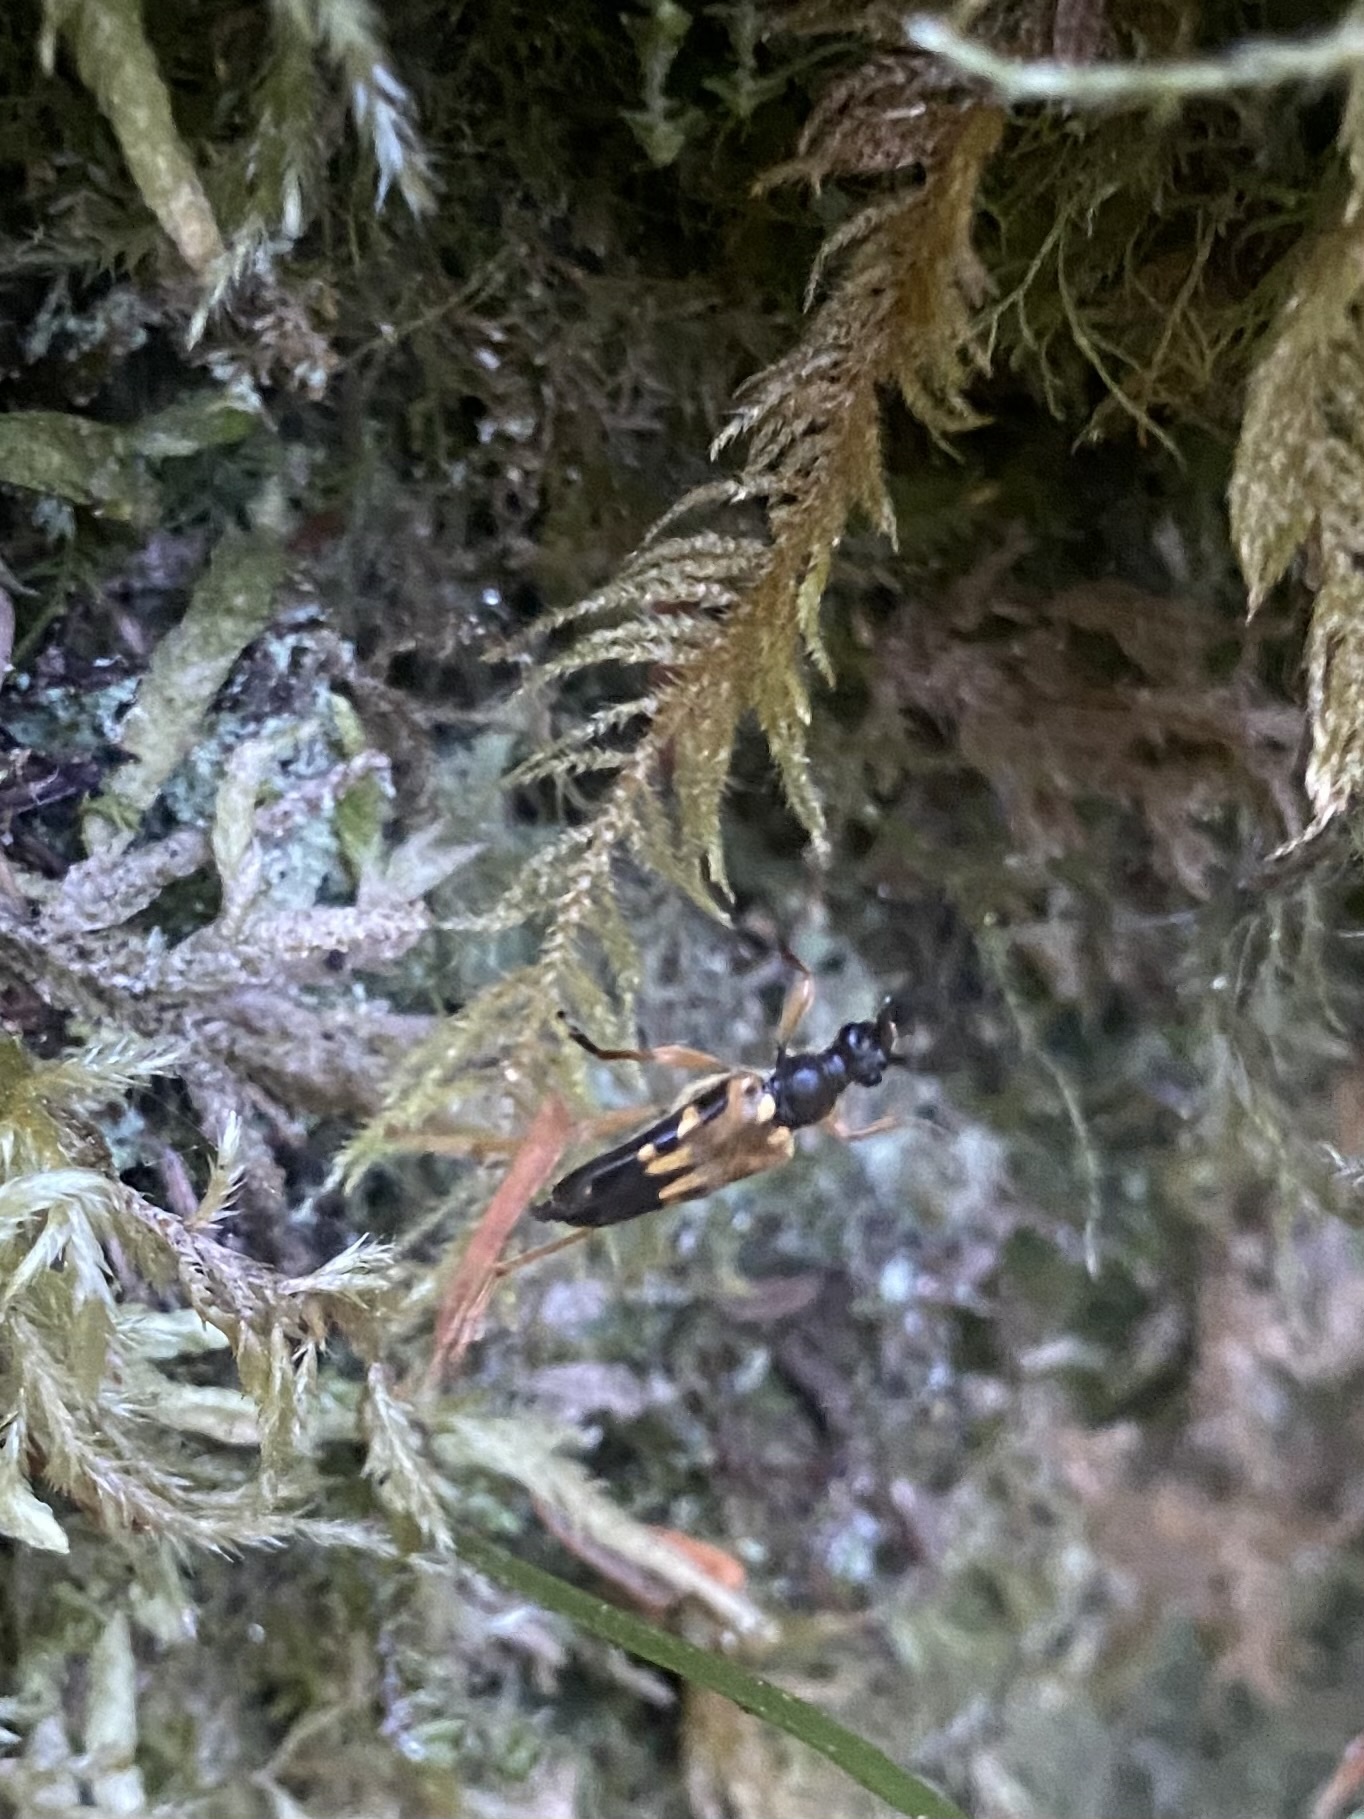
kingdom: Animalia
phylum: Arthropoda
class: Insecta
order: Coleoptera
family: Cerambycidae
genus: Xestoleptura
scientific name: Xestoleptura crassipes
